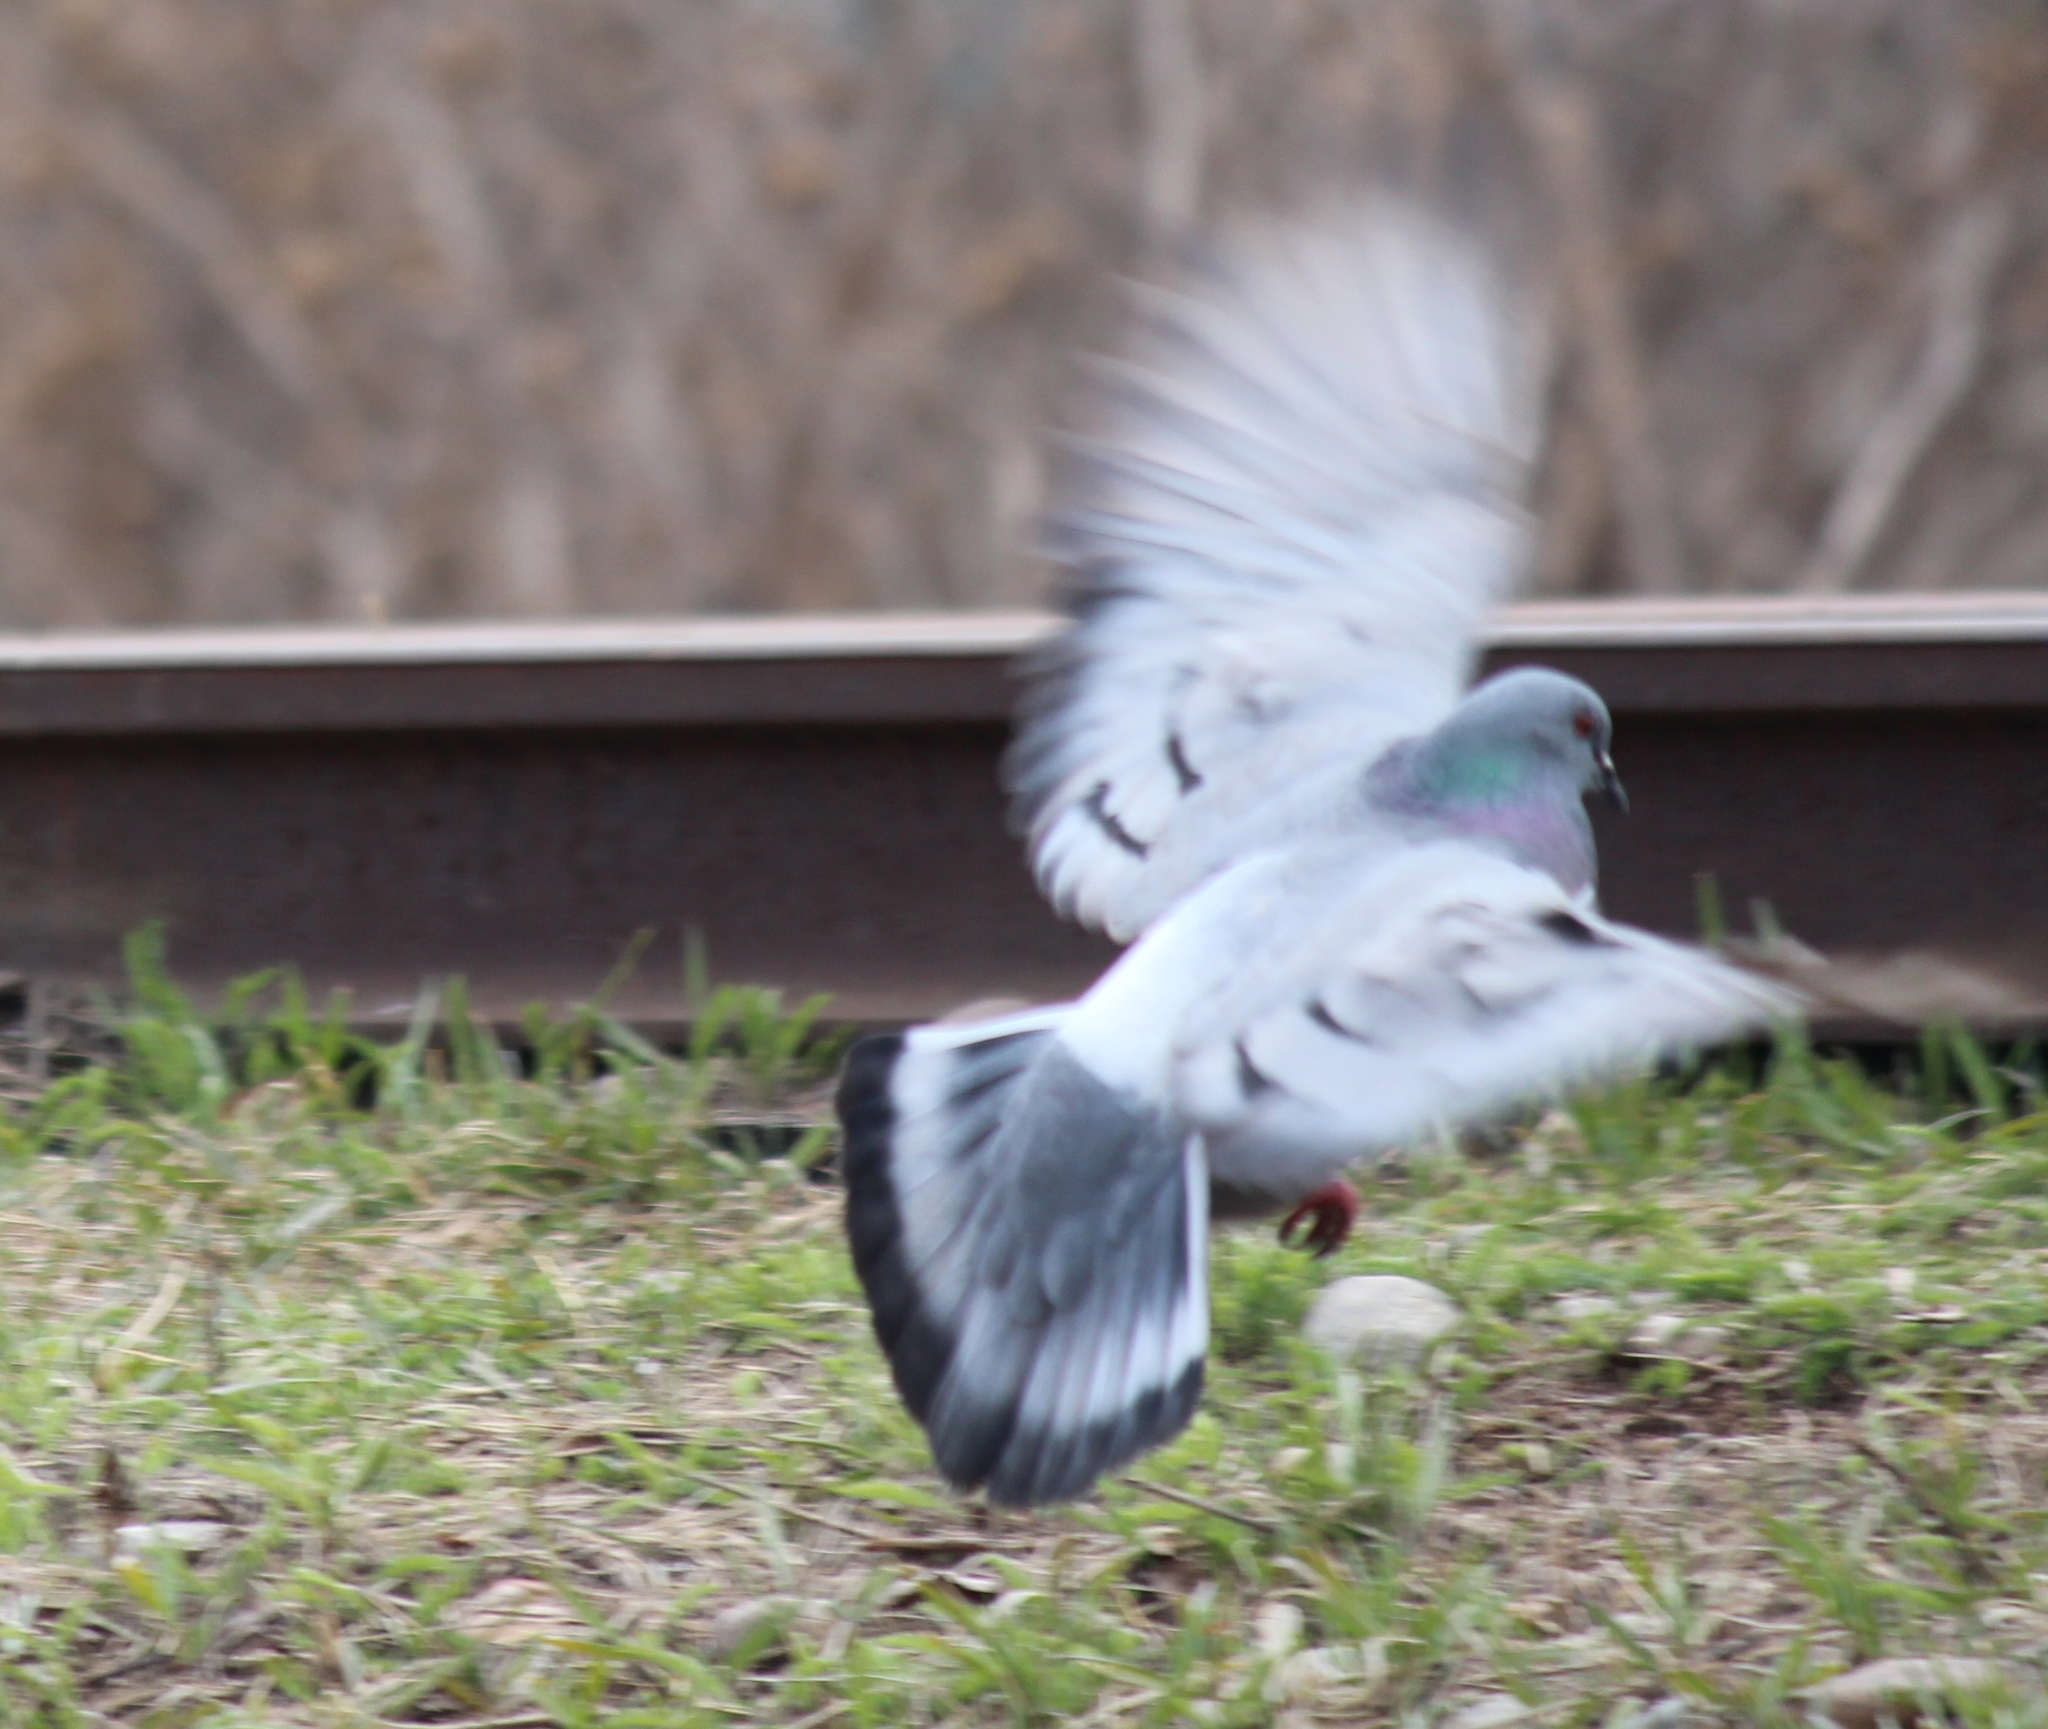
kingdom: Animalia
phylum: Chordata
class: Aves
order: Columbiformes
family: Columbidae
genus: Columba
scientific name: Columba rupestris
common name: Hill pigeon
